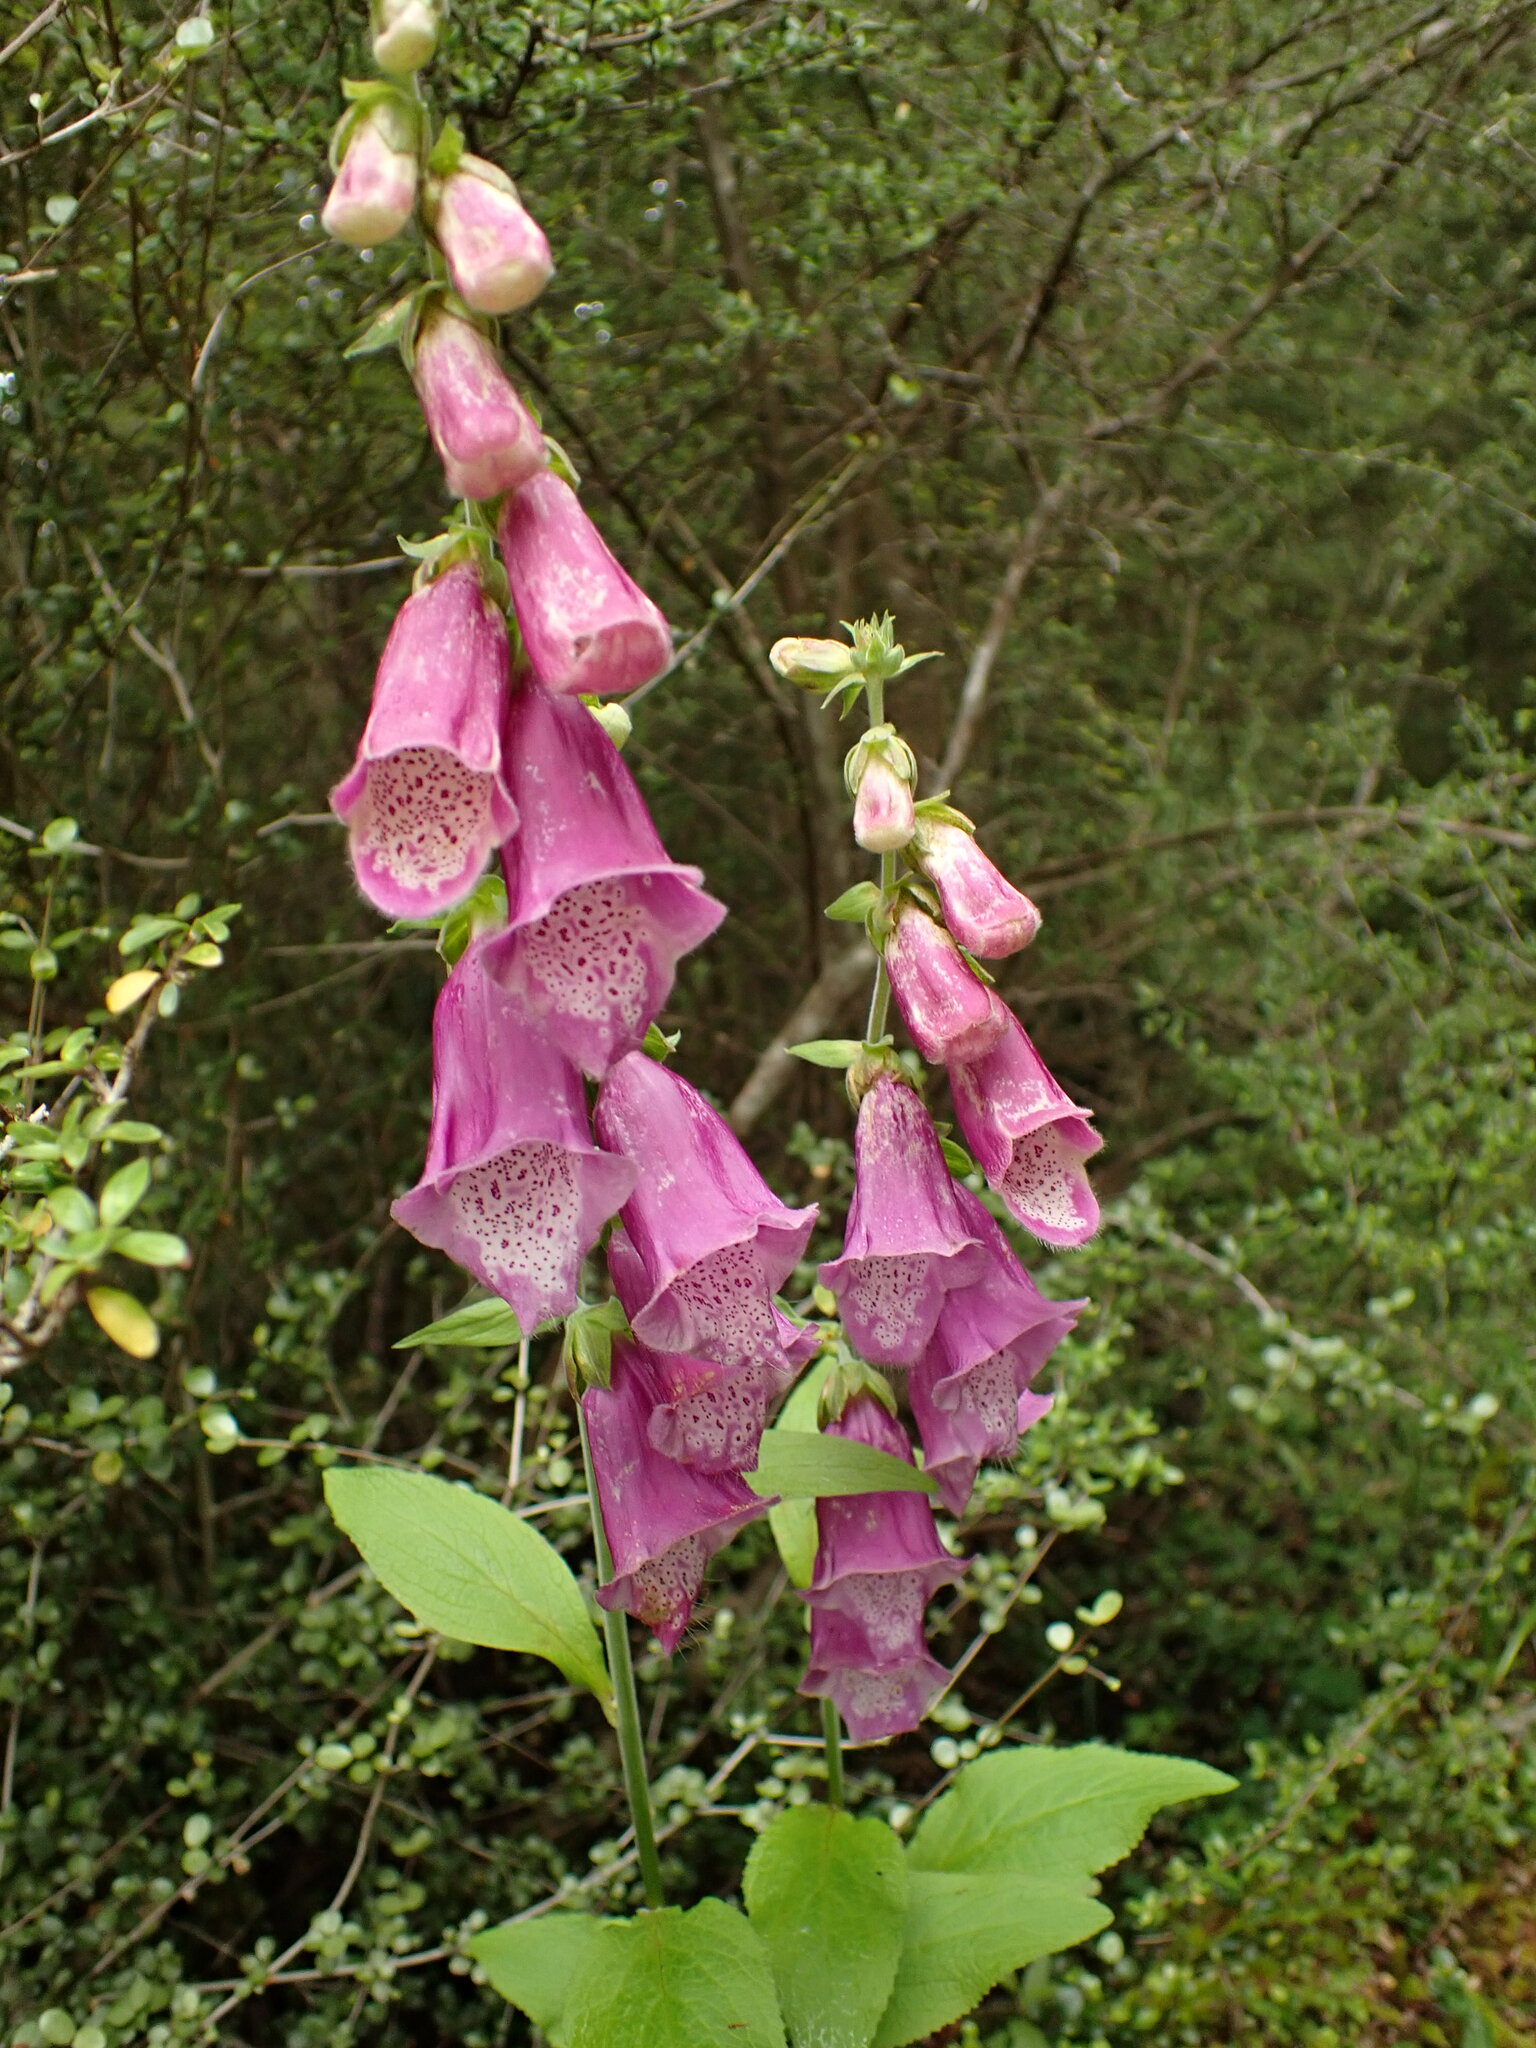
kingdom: Plantae
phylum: Tracheophyta
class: Magnoliopsida
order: Lamiales
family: Plantaginaceae
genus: Digitalis
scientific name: Digitalis purpurea
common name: Foxglove
